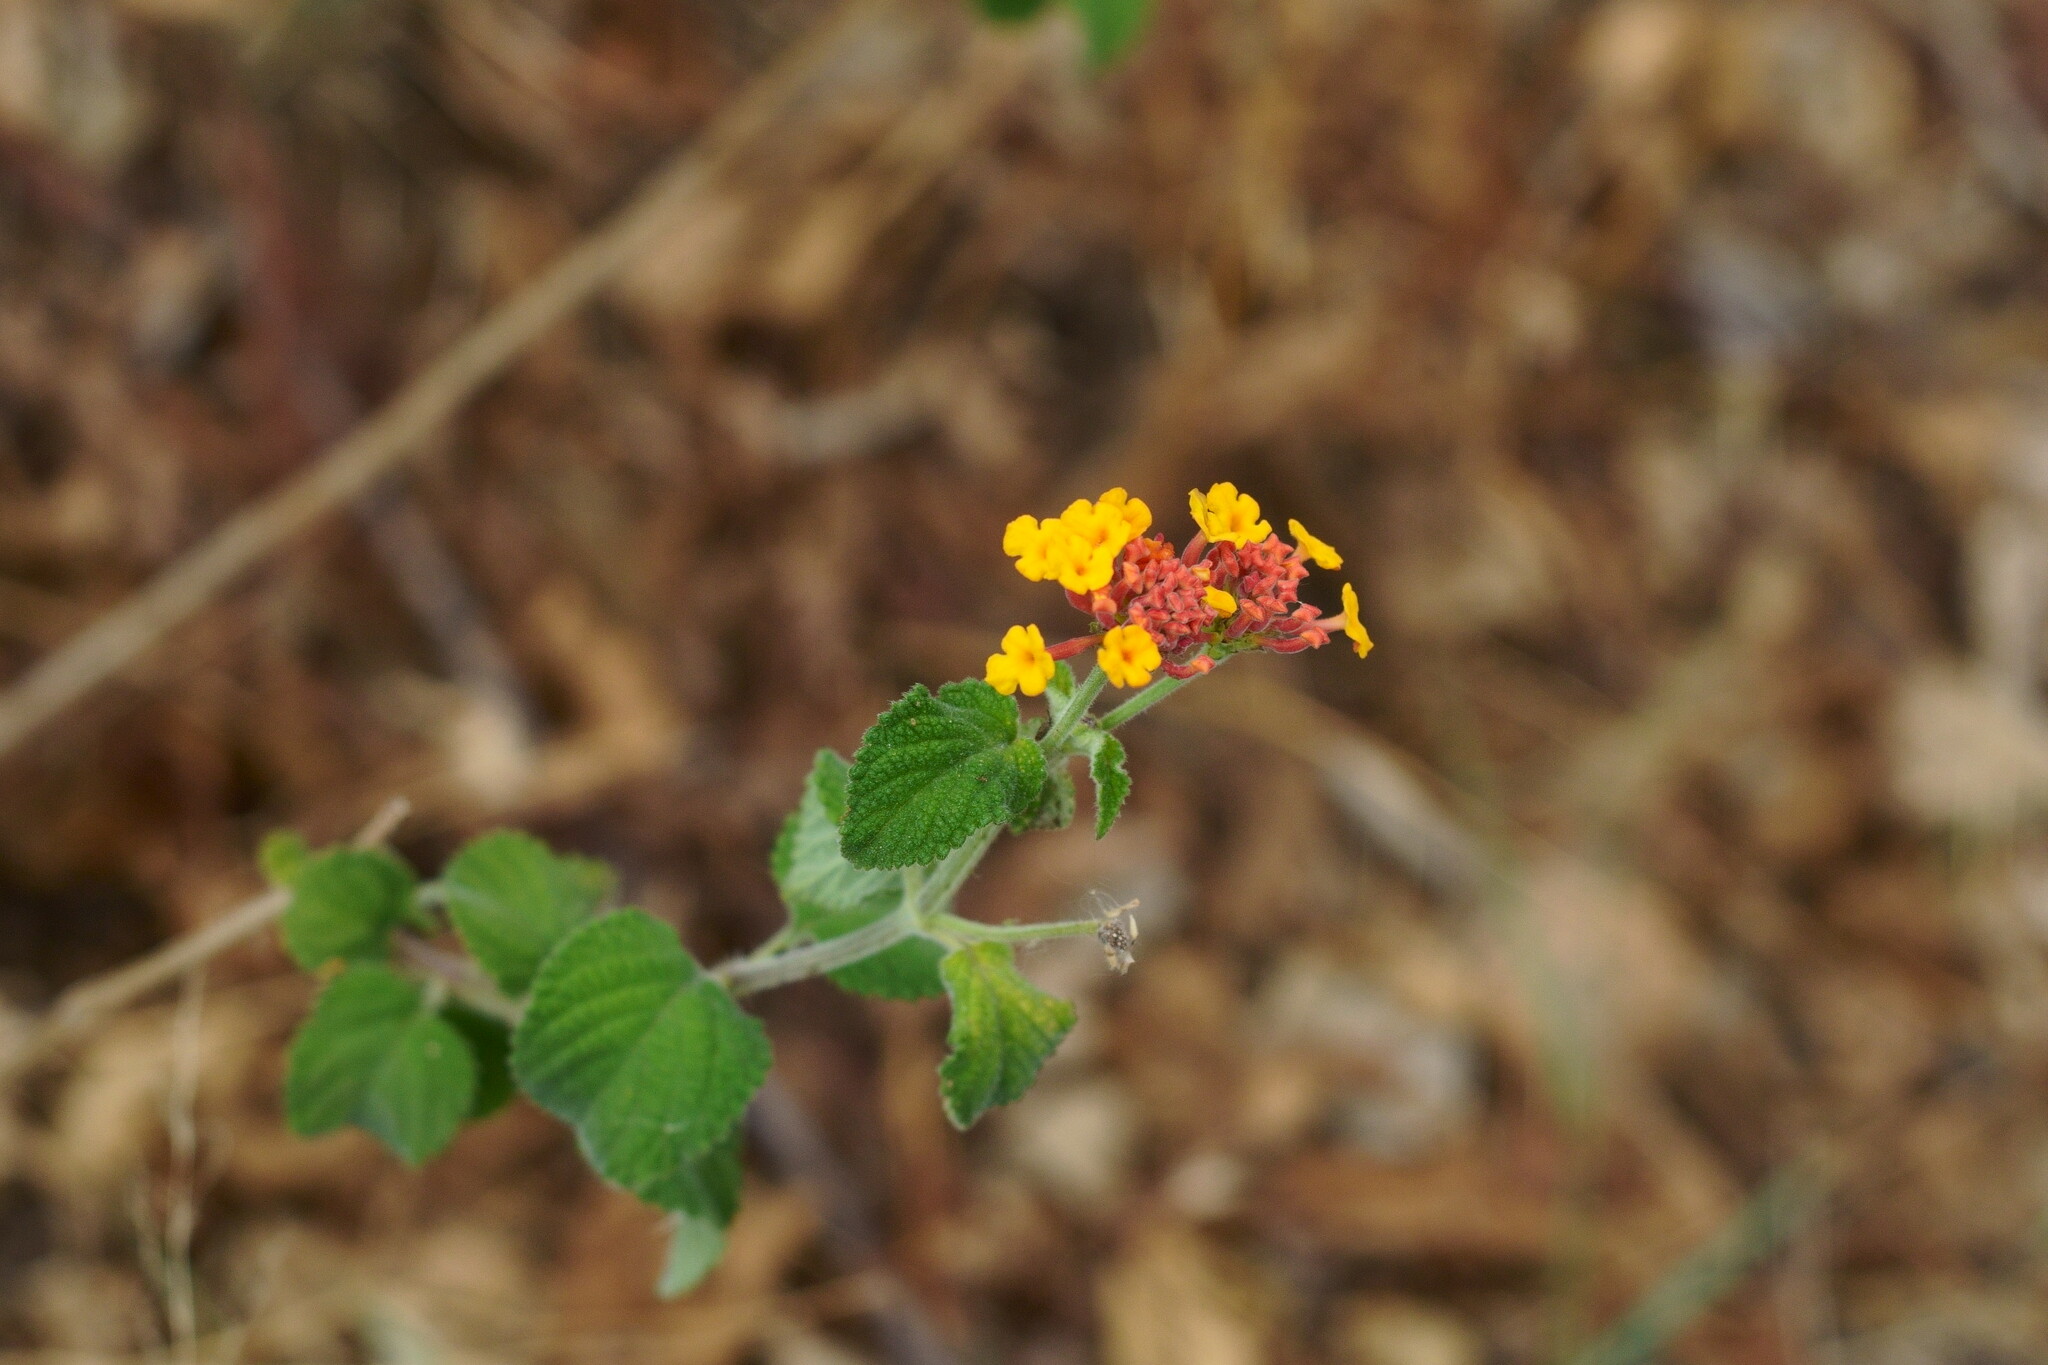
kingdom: Plantae
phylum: Tracheophyta
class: Magnoliopsida
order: Lamiales
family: Verbenaceae
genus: Lantana
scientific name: Lantana camara
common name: Lantana
